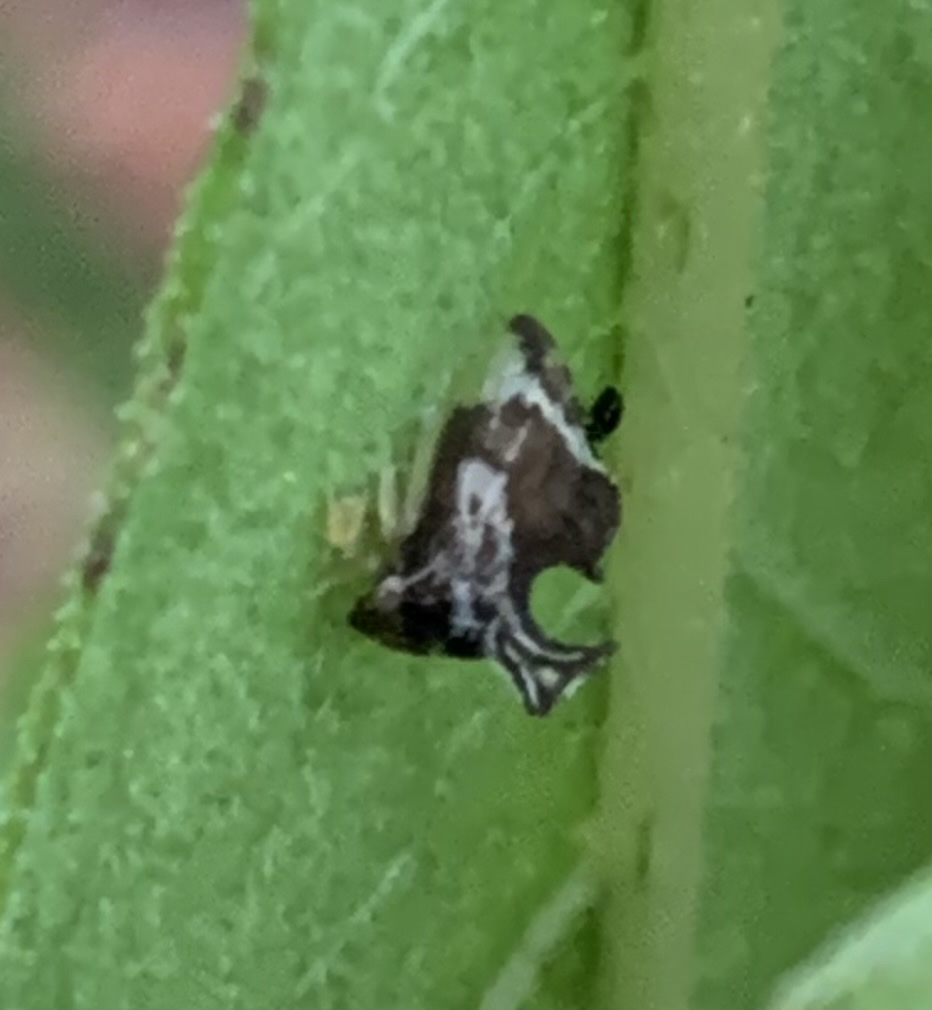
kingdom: Animalia
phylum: Arthropoda
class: Insecta
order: Hemiptera
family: Membracidae
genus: Entylia
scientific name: Entylia carinata
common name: Keeled treehopper
